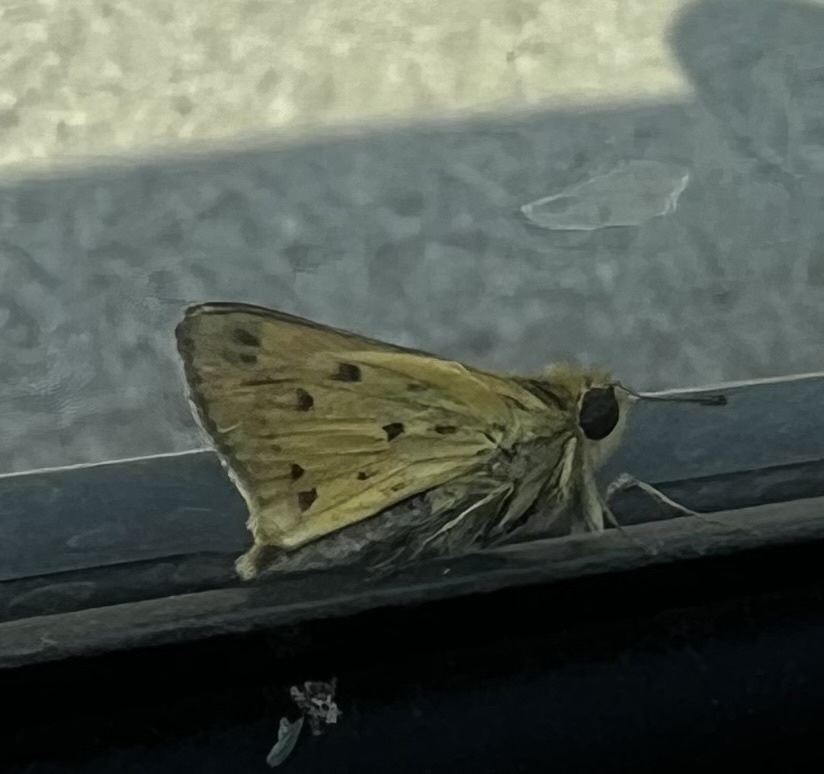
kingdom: Animalia
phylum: Arthropoda
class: Insecta
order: Lepidoptera
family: Hesperiidae
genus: Hylephila
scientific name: Hylephila phyleus
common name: Fiery skipper
